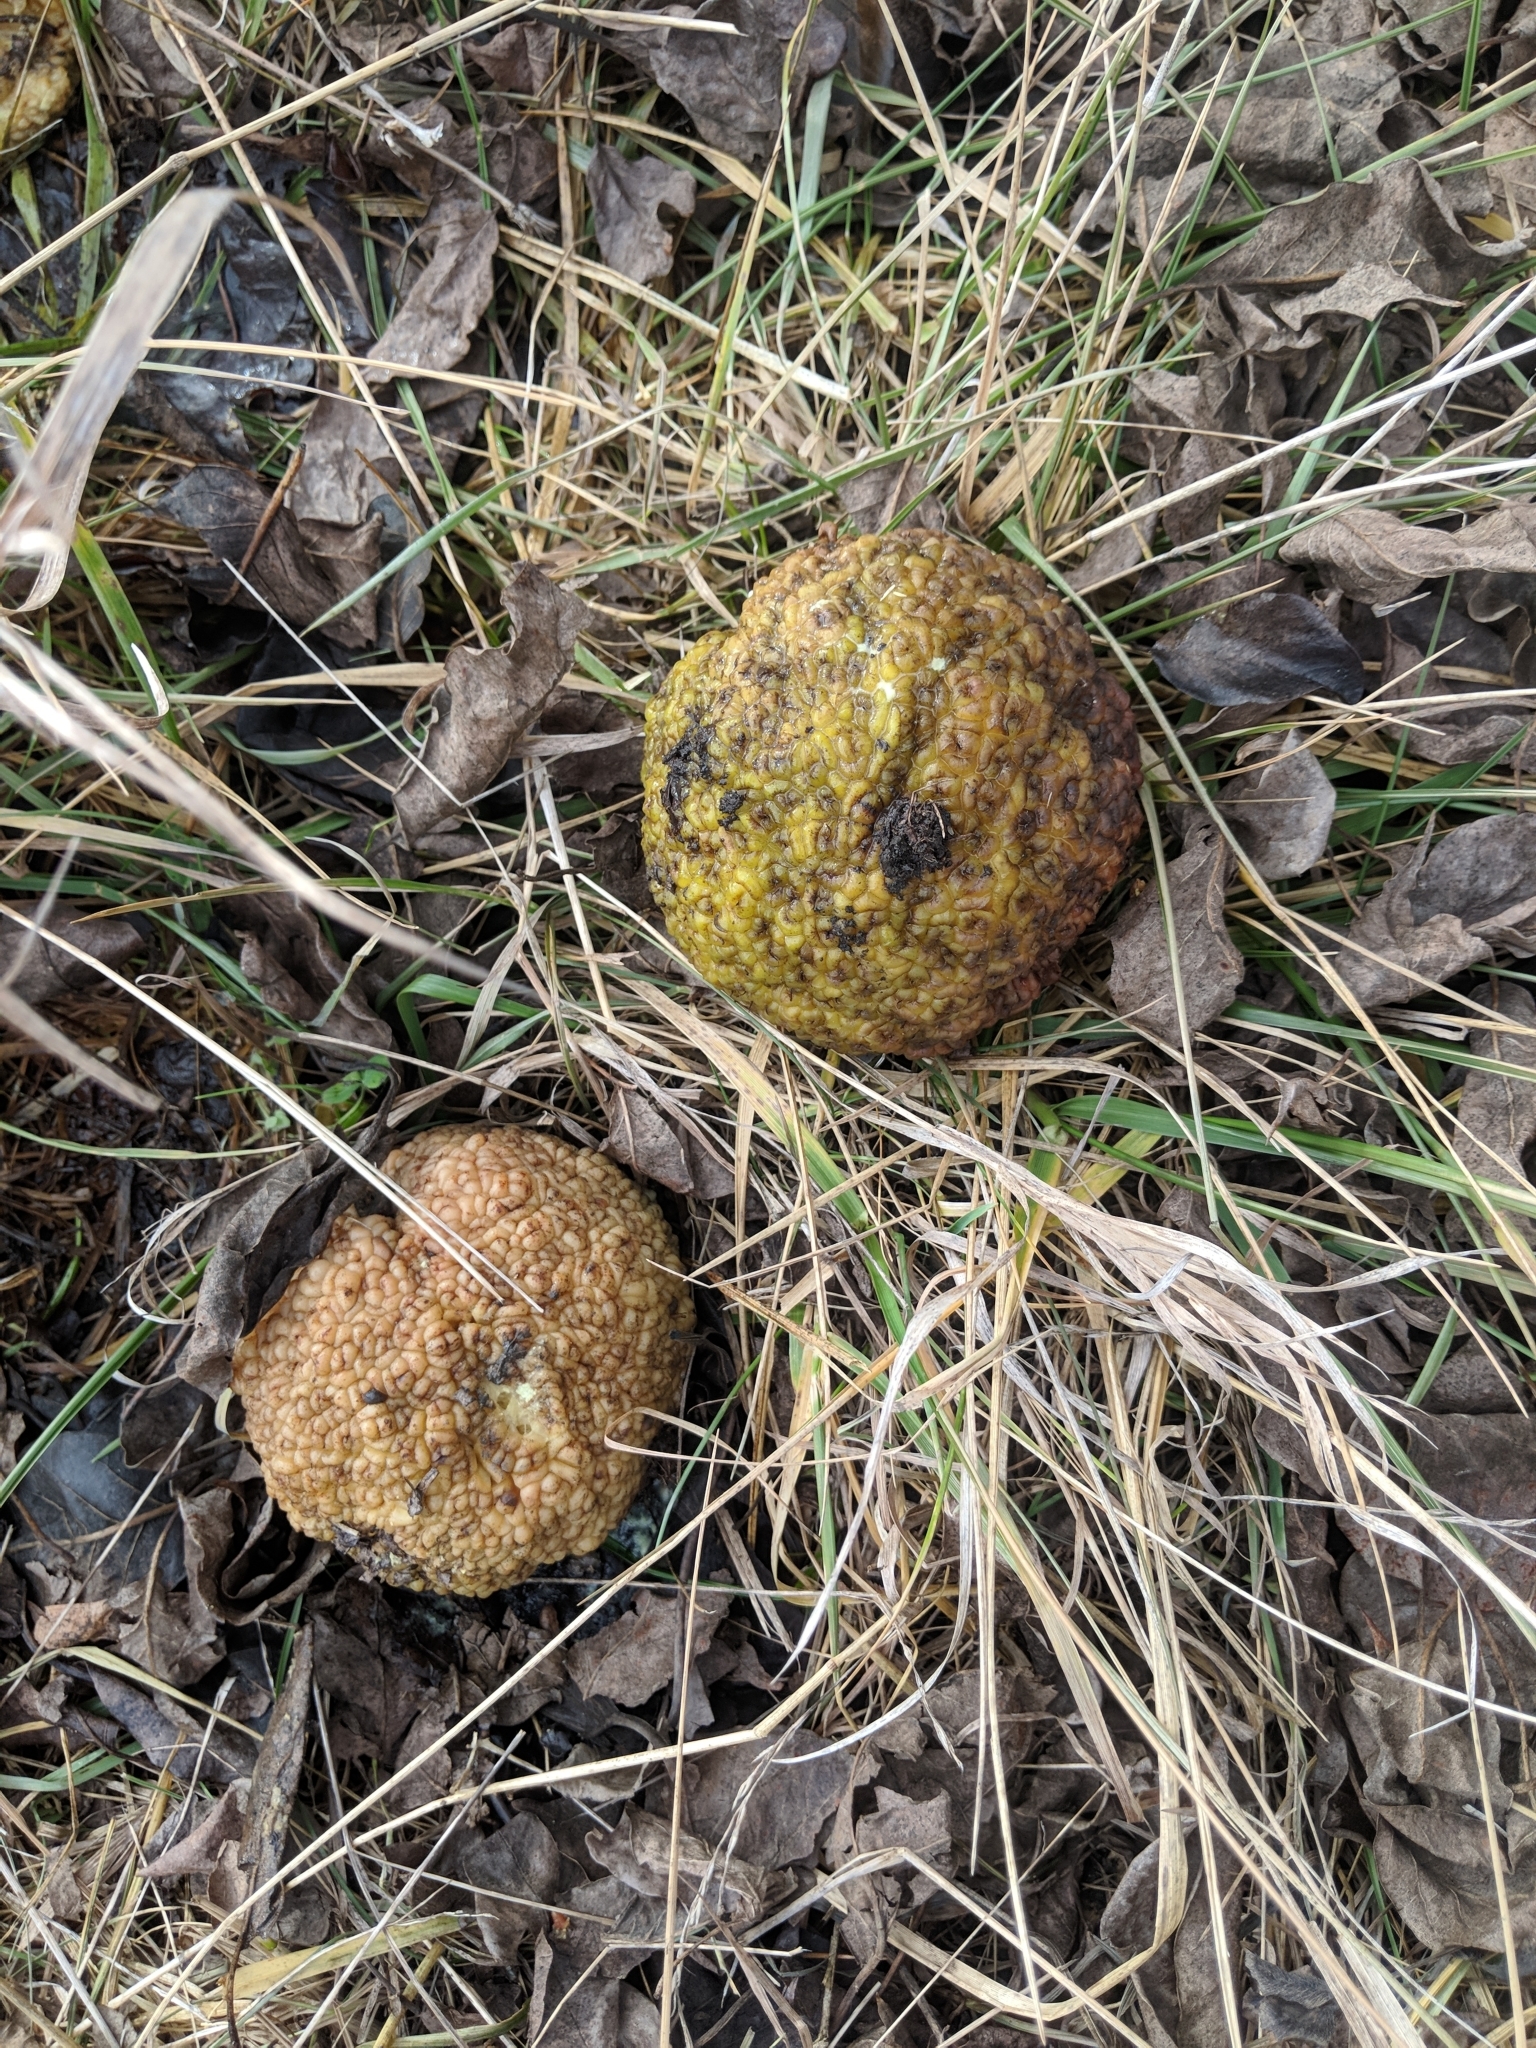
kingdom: Plantae
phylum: Tracheophyta
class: Magnoliopsida
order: Rosales
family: Moraceae
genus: Maclura
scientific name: Maclura pomifera
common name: Osage-orange
